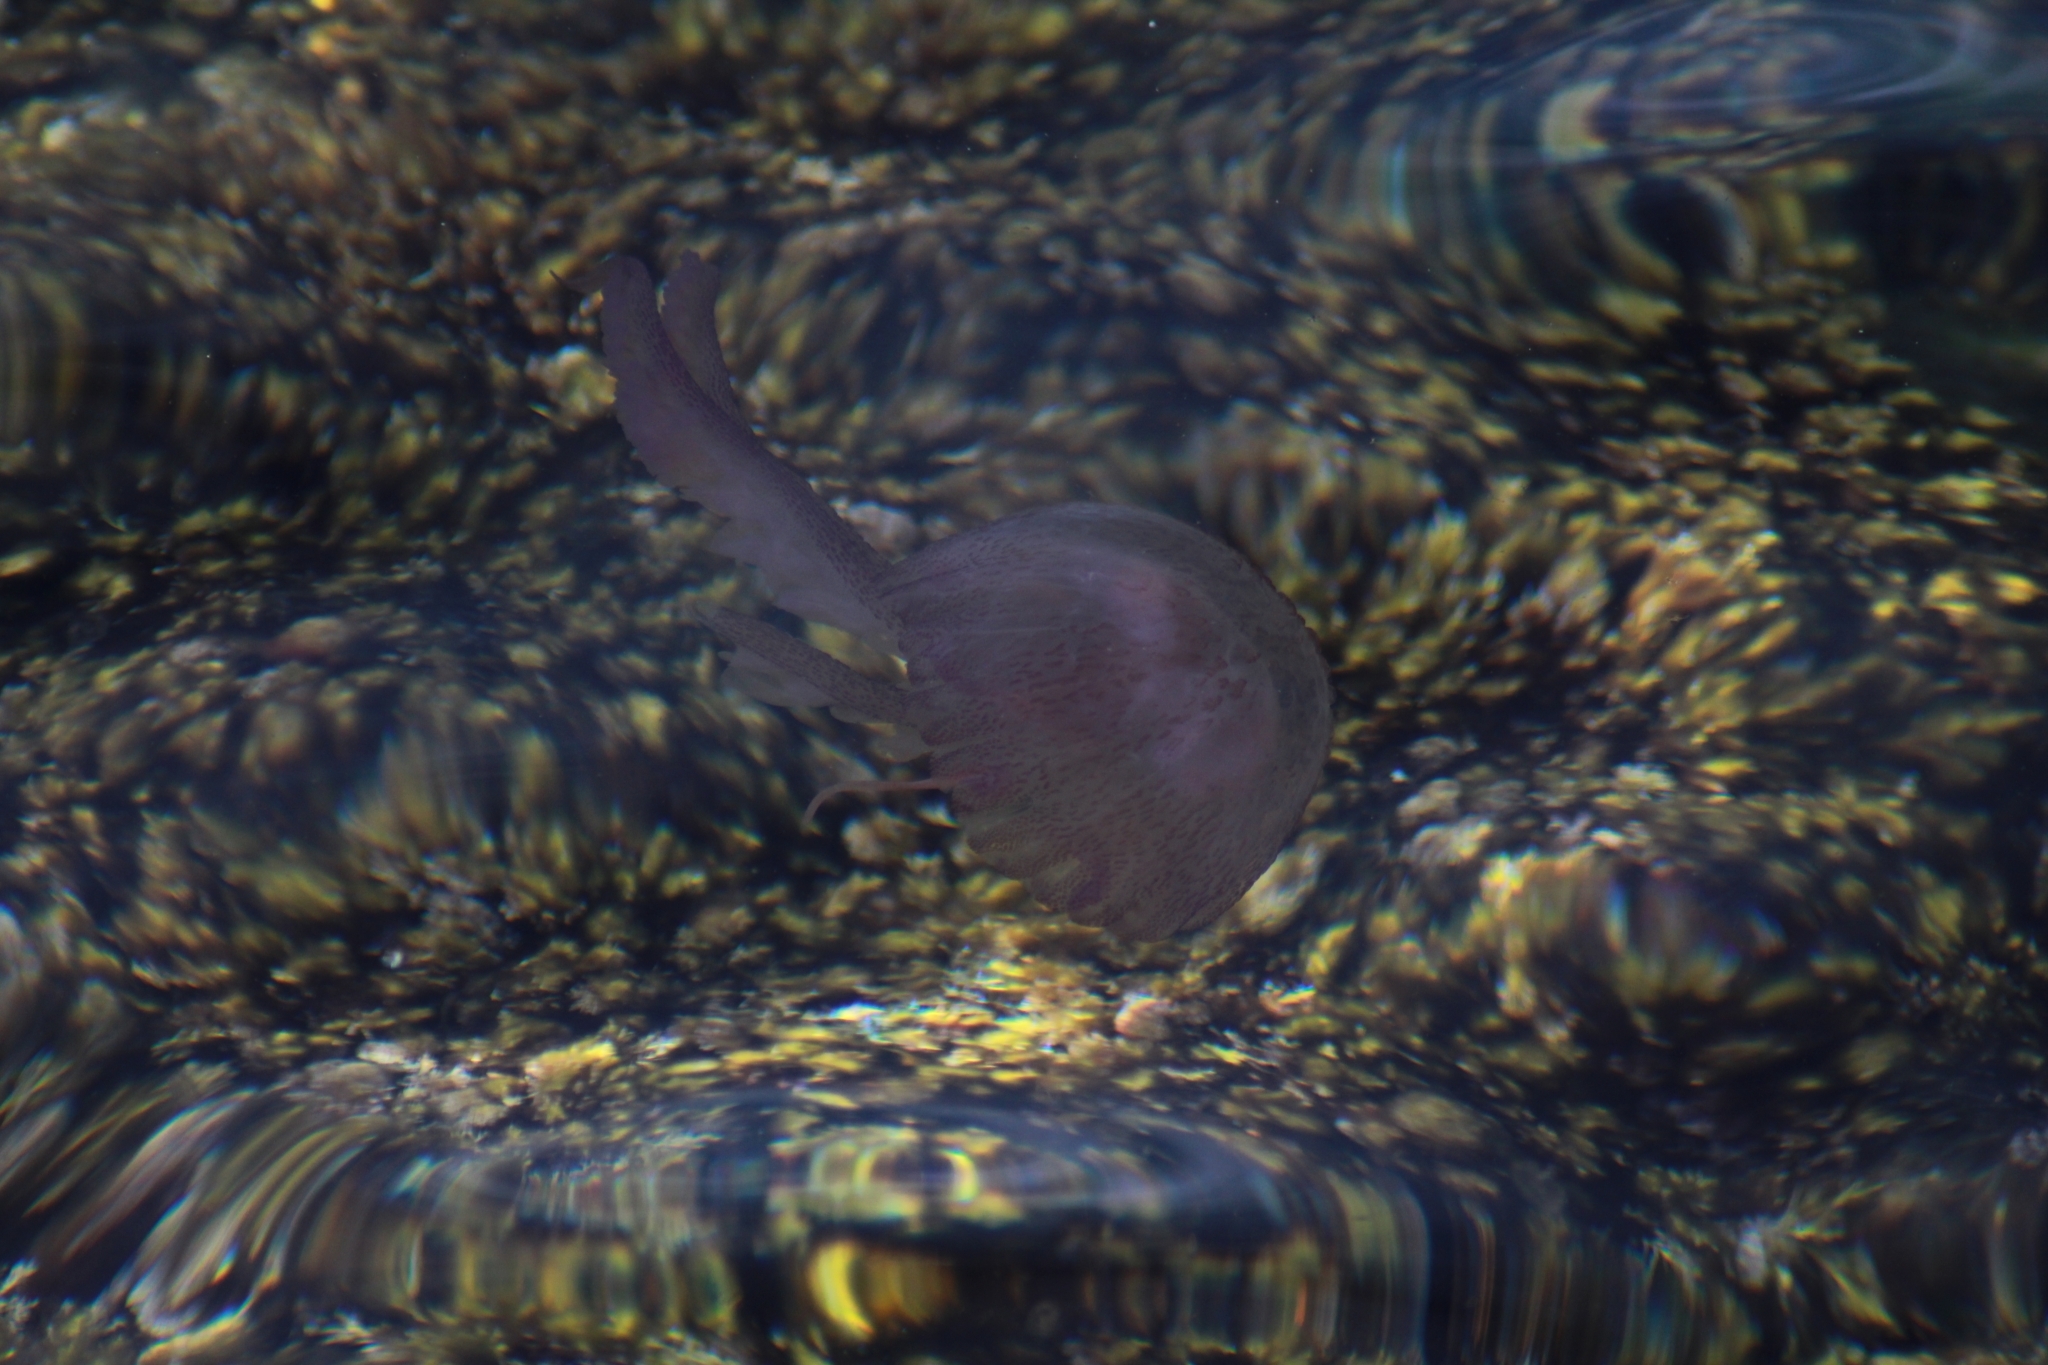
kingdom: Animalia
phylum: Cnidaria
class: Scyphozoa
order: Semaeostomeae
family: Pelagiidae
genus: Pelagia
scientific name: Pelagia noctiluca
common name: Mauve stinger
